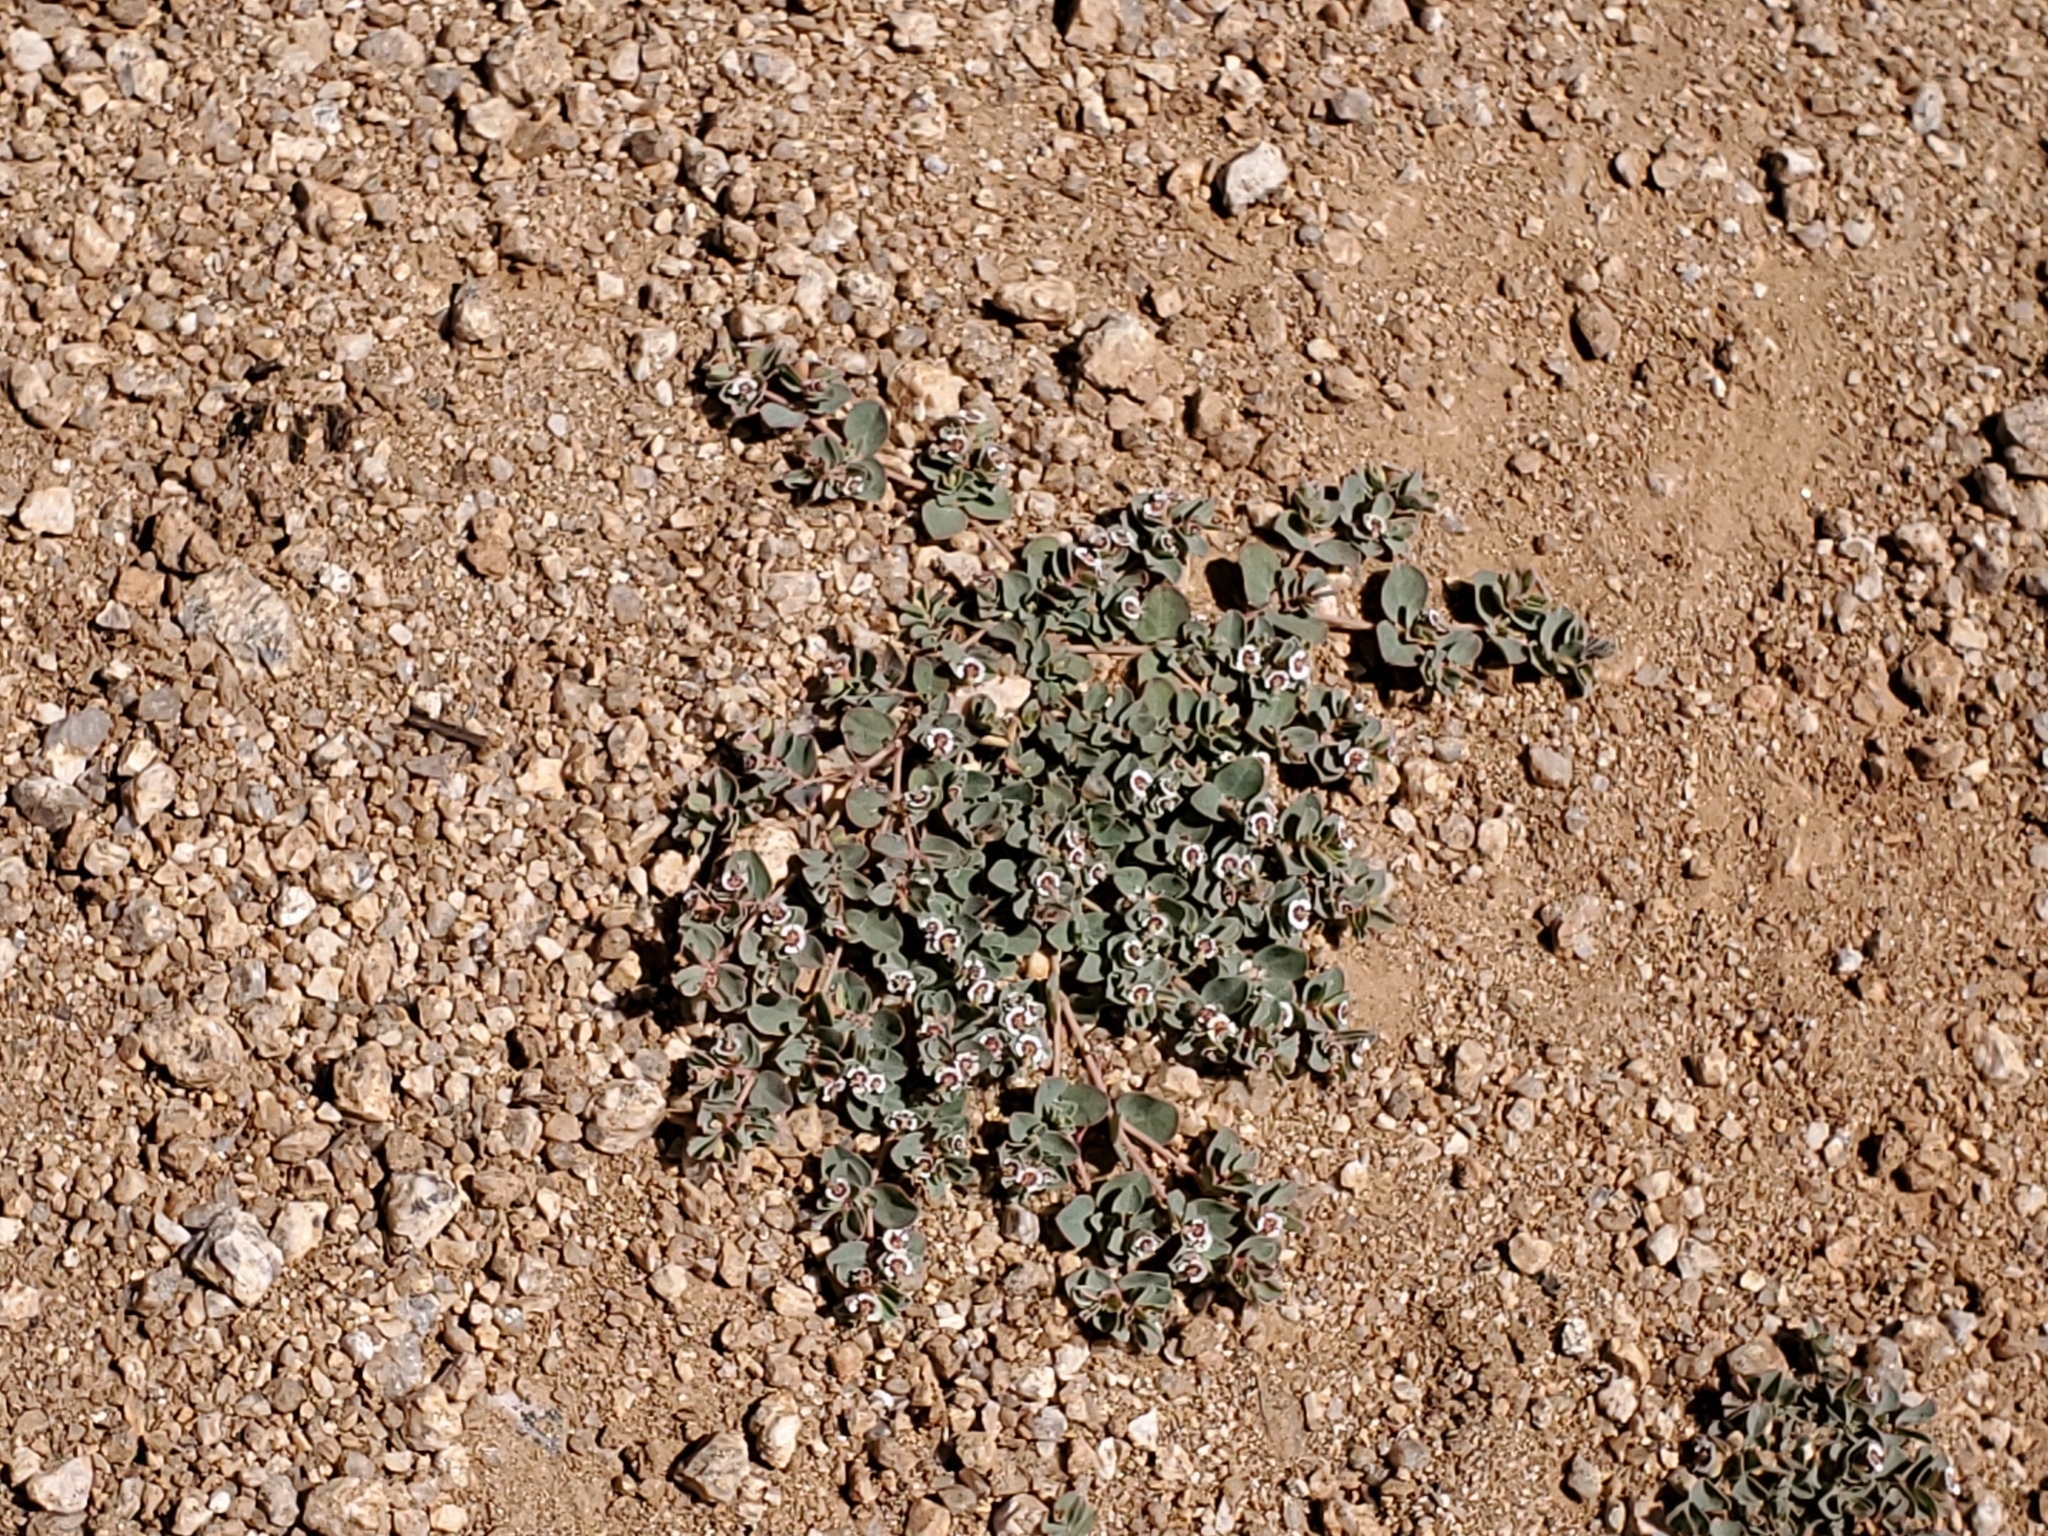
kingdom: Plantae
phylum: Tracheophyta
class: Magnoliopsida
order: Malpighiales
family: Euphorbiaceae
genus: Euphorbia
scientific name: Euphorbia albomarginata
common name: Whitemargin sandmat
